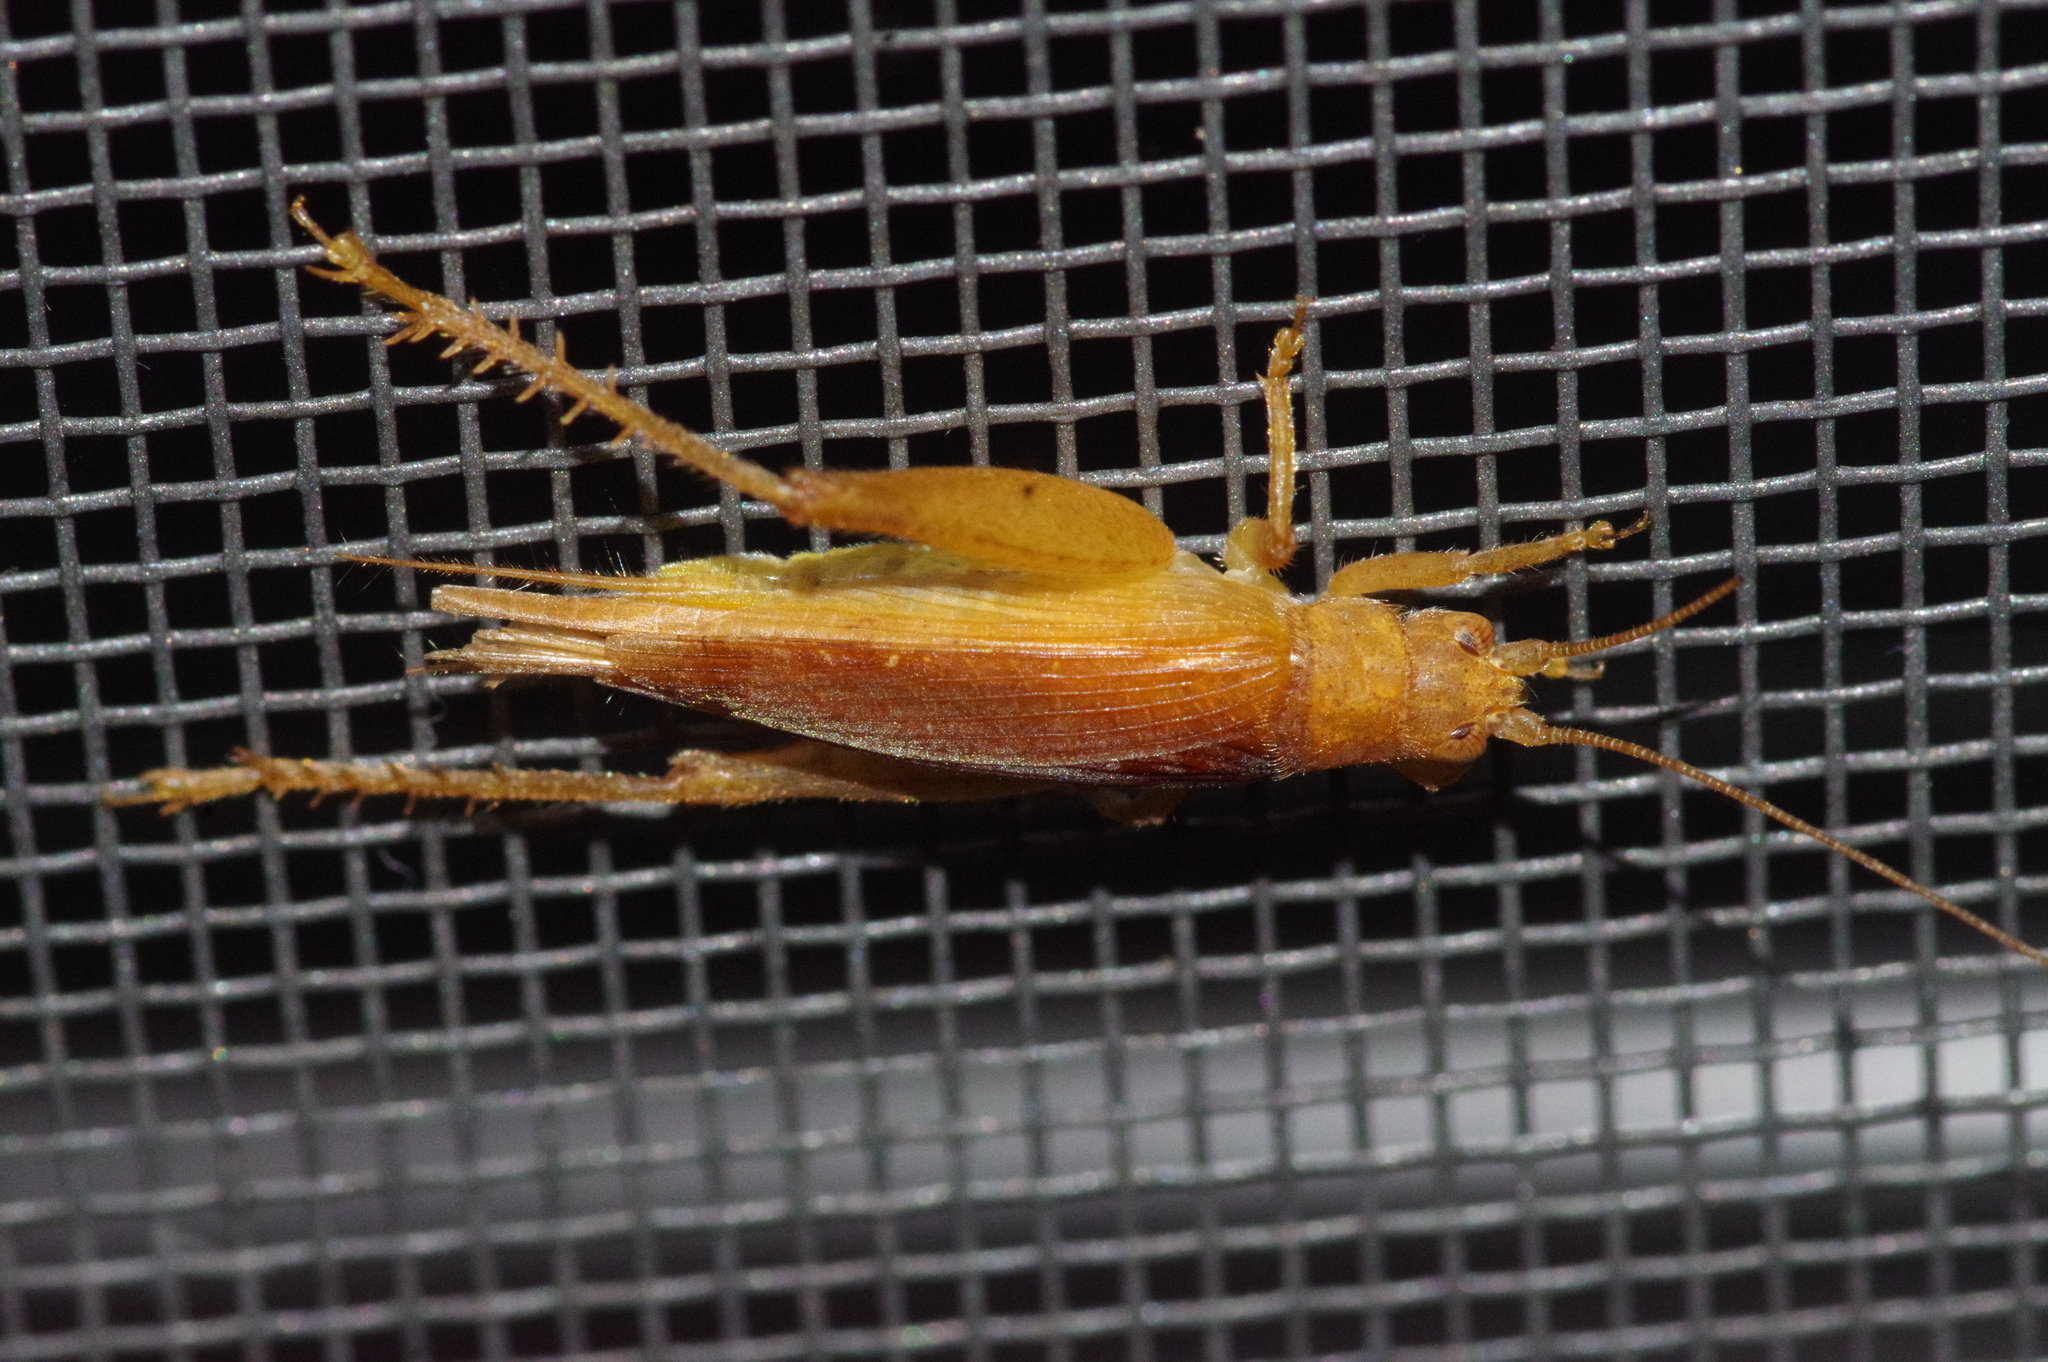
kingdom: Animalia
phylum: Arthropoda
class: Insecta
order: Orthoptera
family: Gryllidae
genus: Aphonoides
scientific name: Aphonoides rufescens
